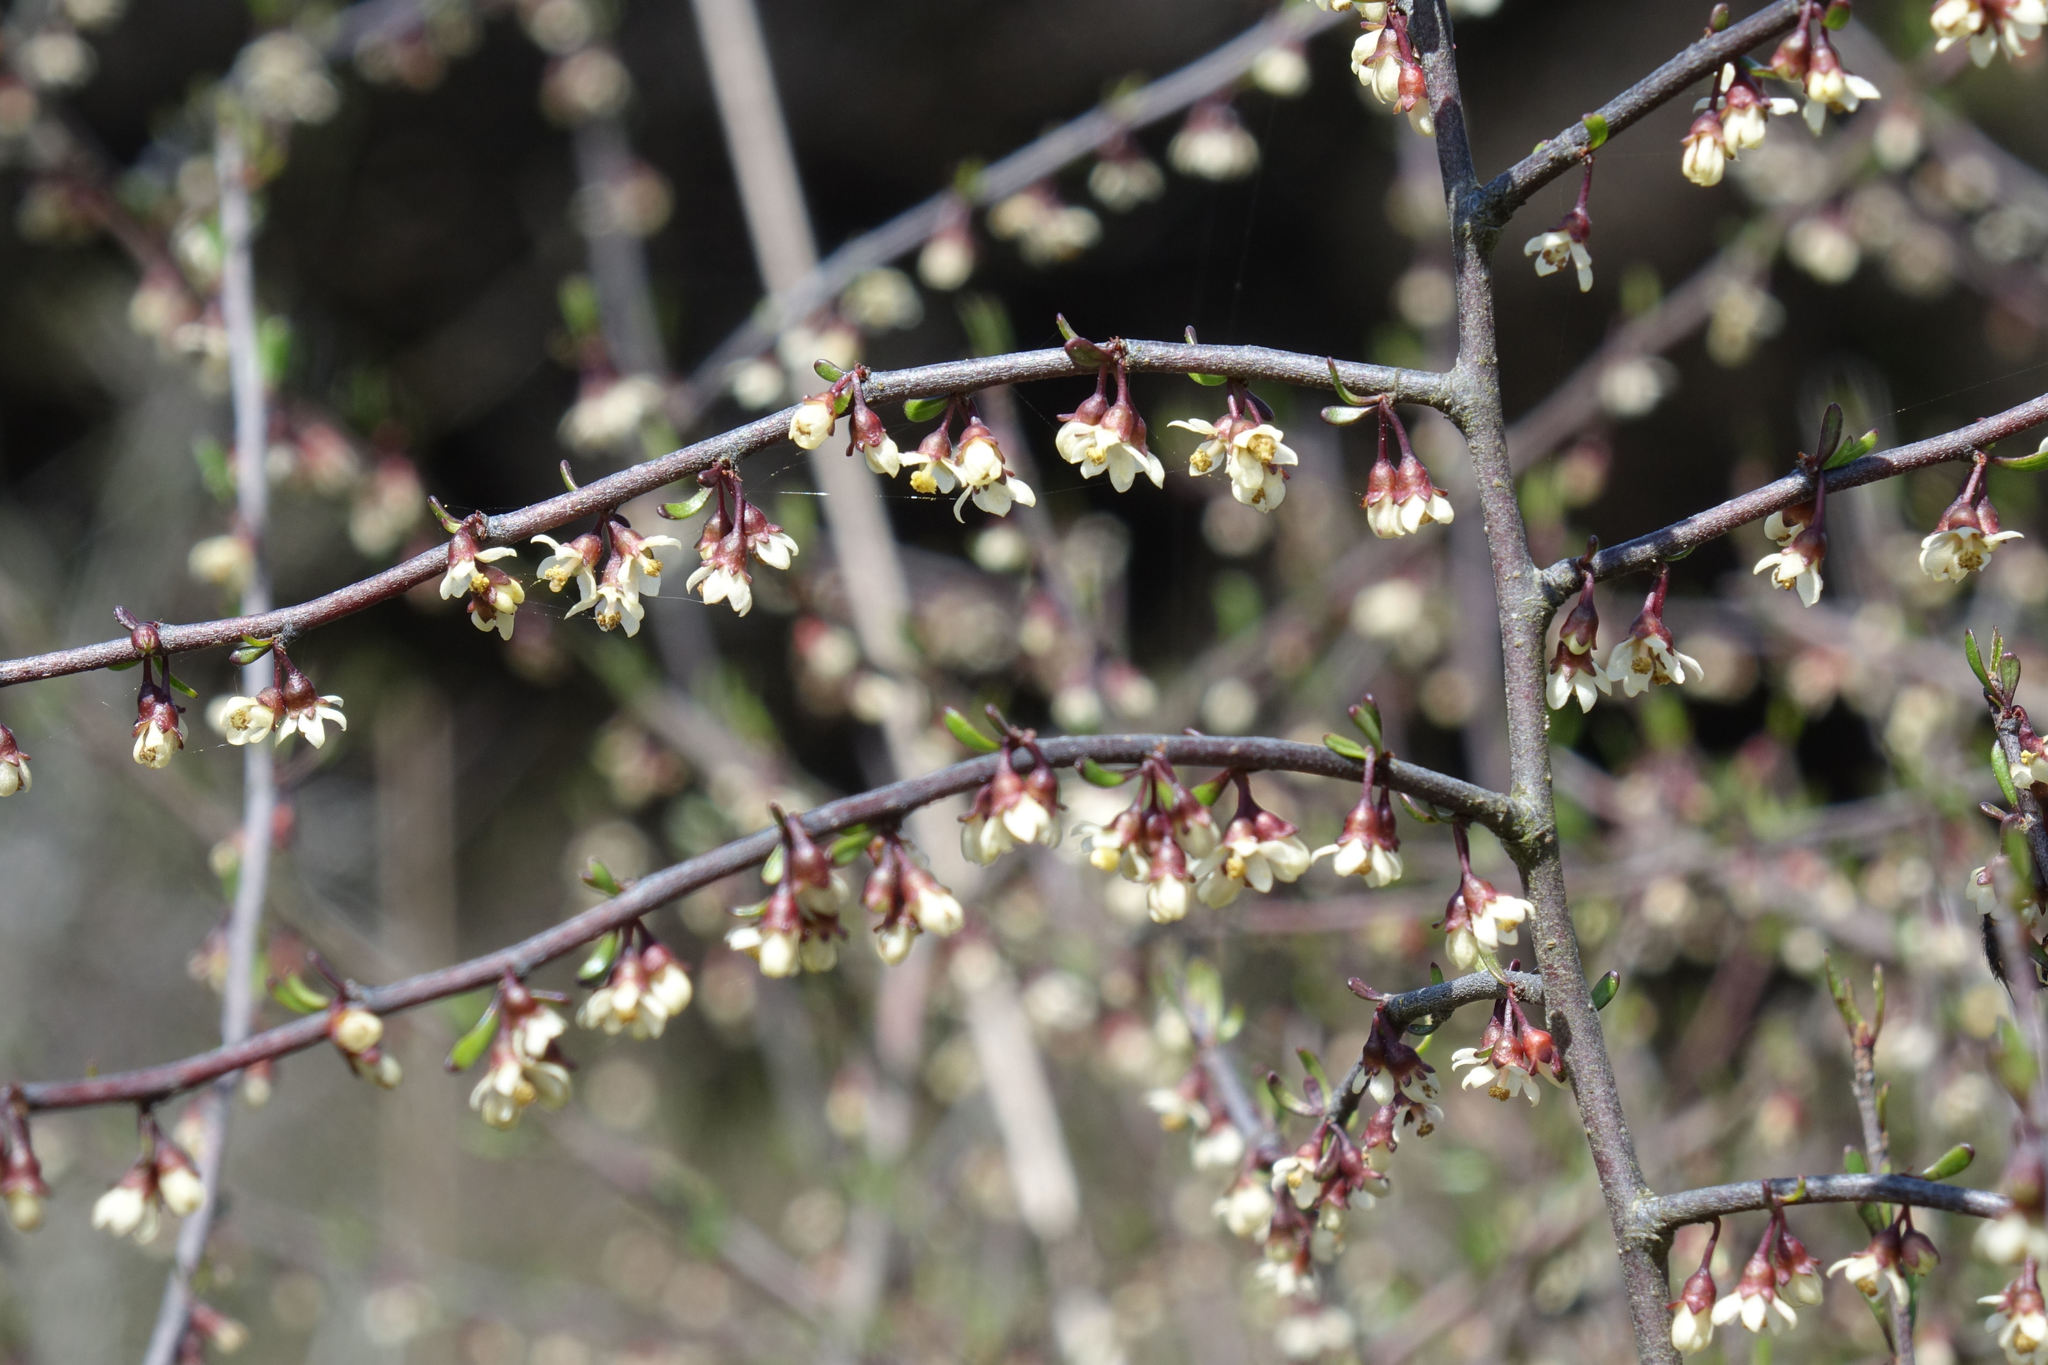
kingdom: Plantae
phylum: Tracheophyta
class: Magnoliopsida
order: Malvales
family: Malvaceae
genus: Plagianthus
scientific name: Plagianthus divaricatus
